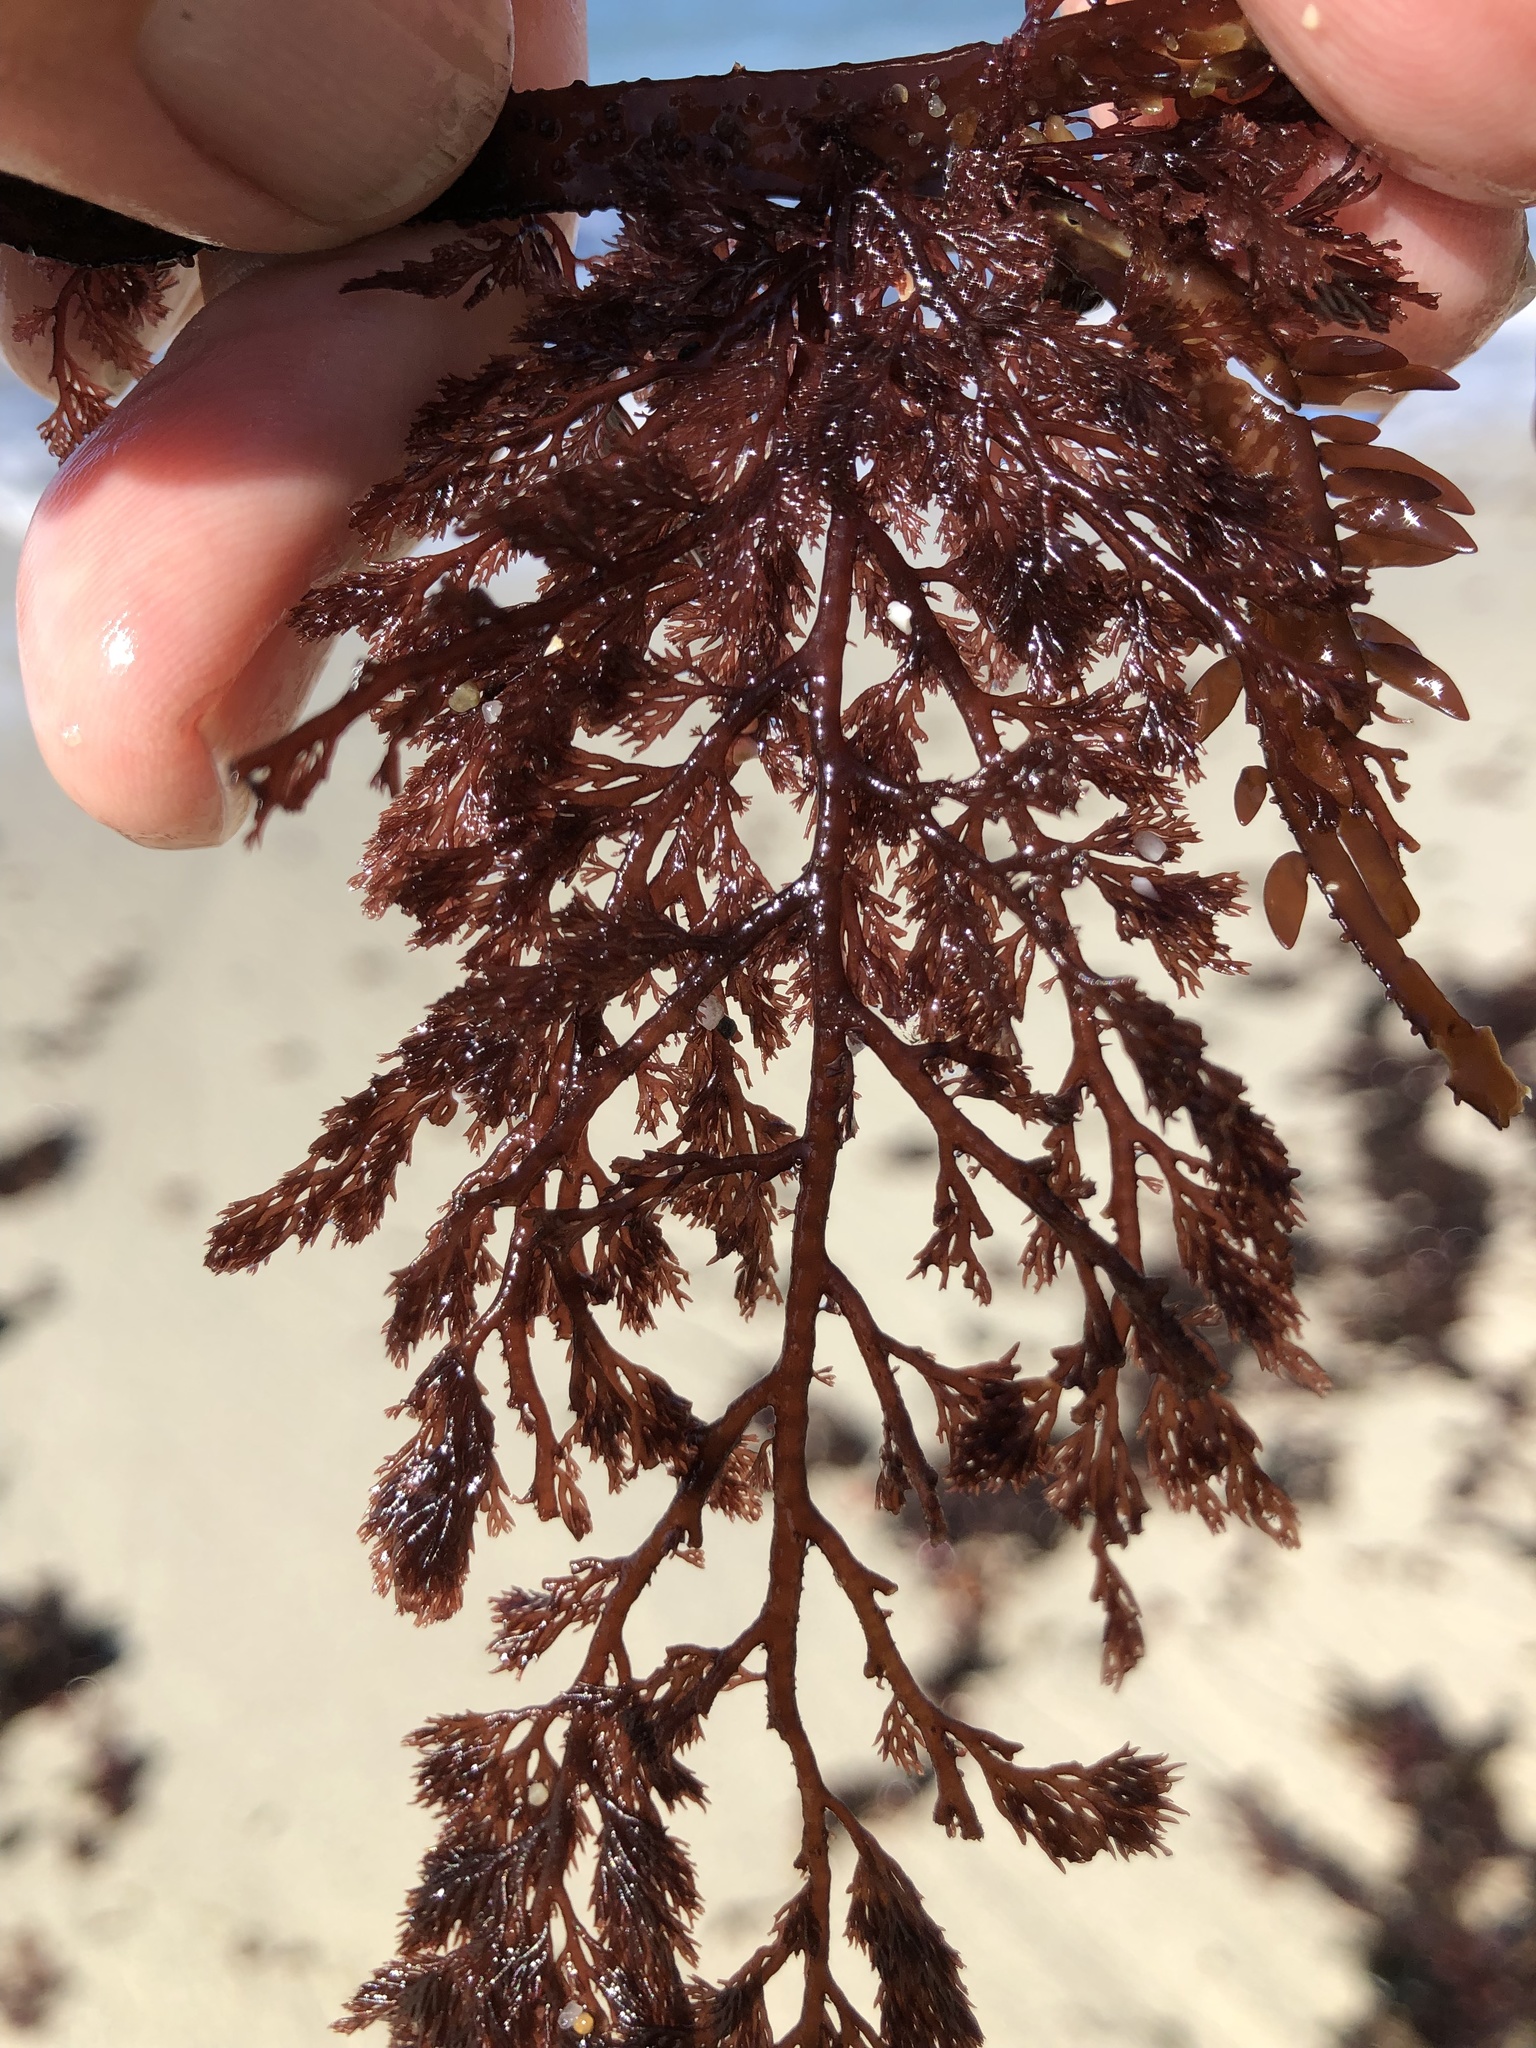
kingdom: Plantae
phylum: Rhodophyta
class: Florideophyceae
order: Ceramiales
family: Ceramiaceae
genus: Microcladia
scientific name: Microcladia coulteri
